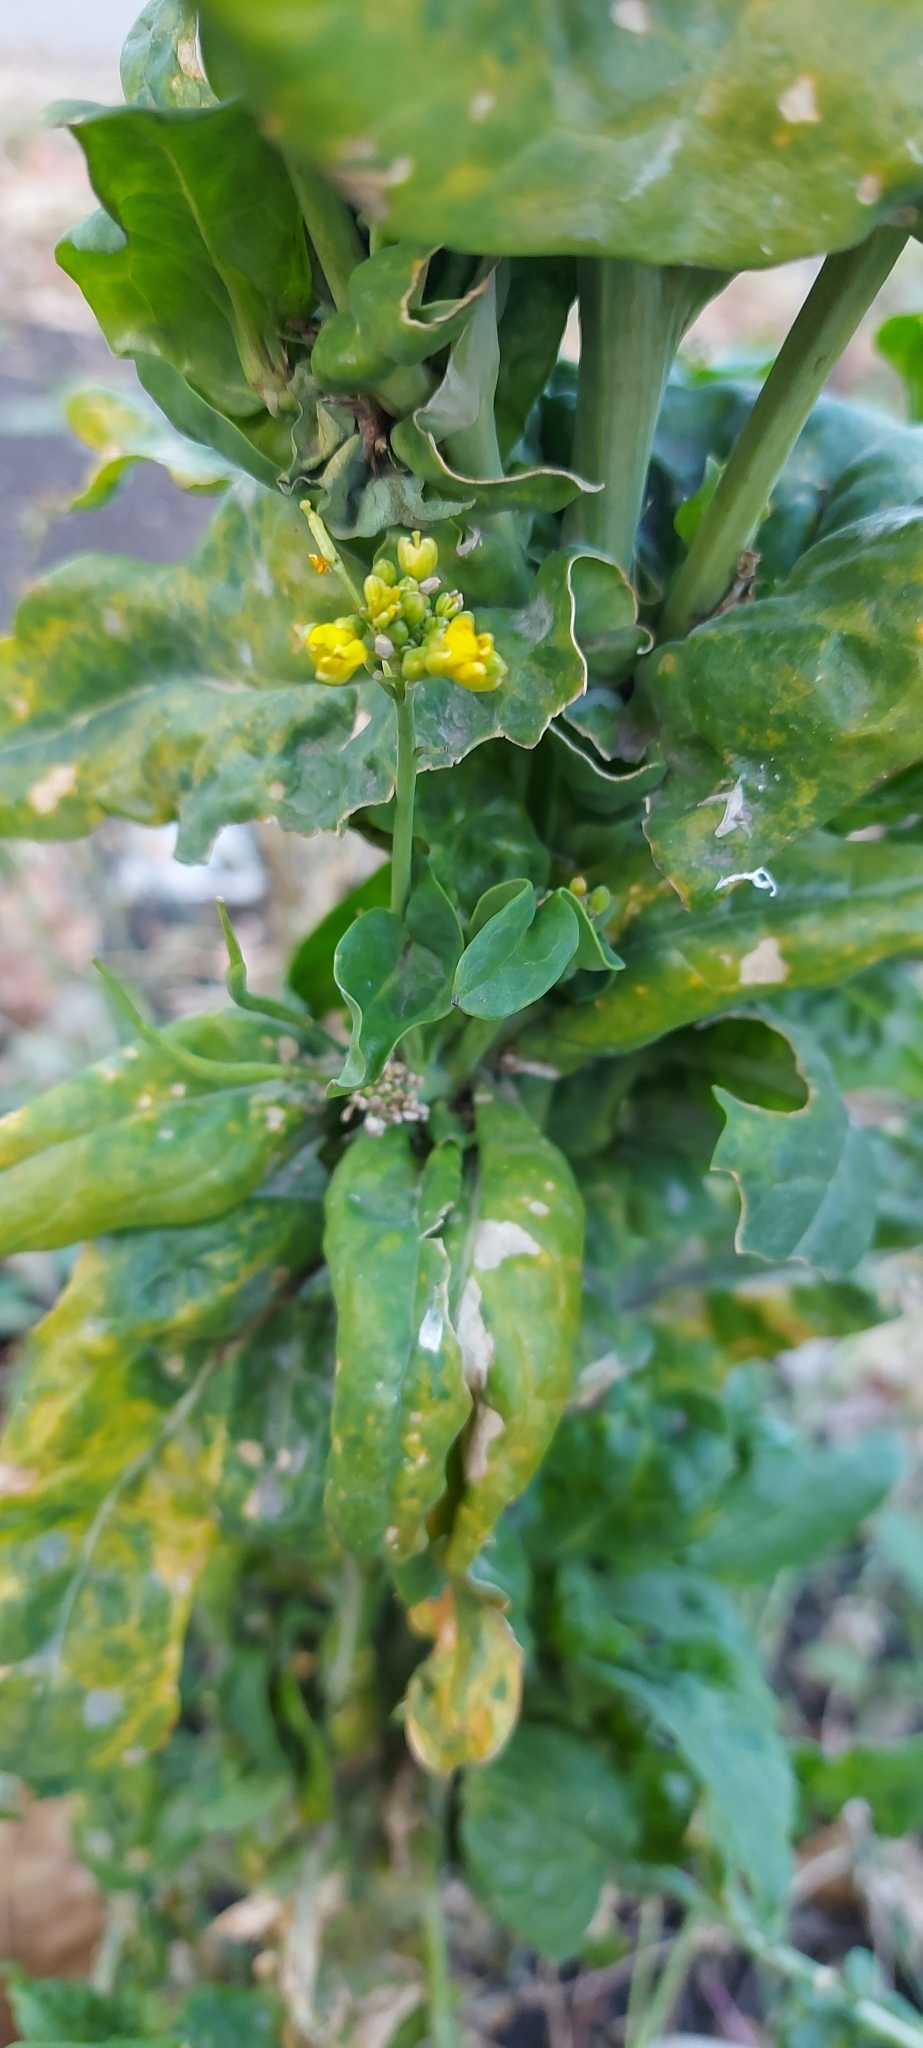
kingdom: Plantae
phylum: Tracheophyta
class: Magnoliopsida
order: Brassicales
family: Brassicaceae
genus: Brassica
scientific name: Brassica rapa
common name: Field mustard
